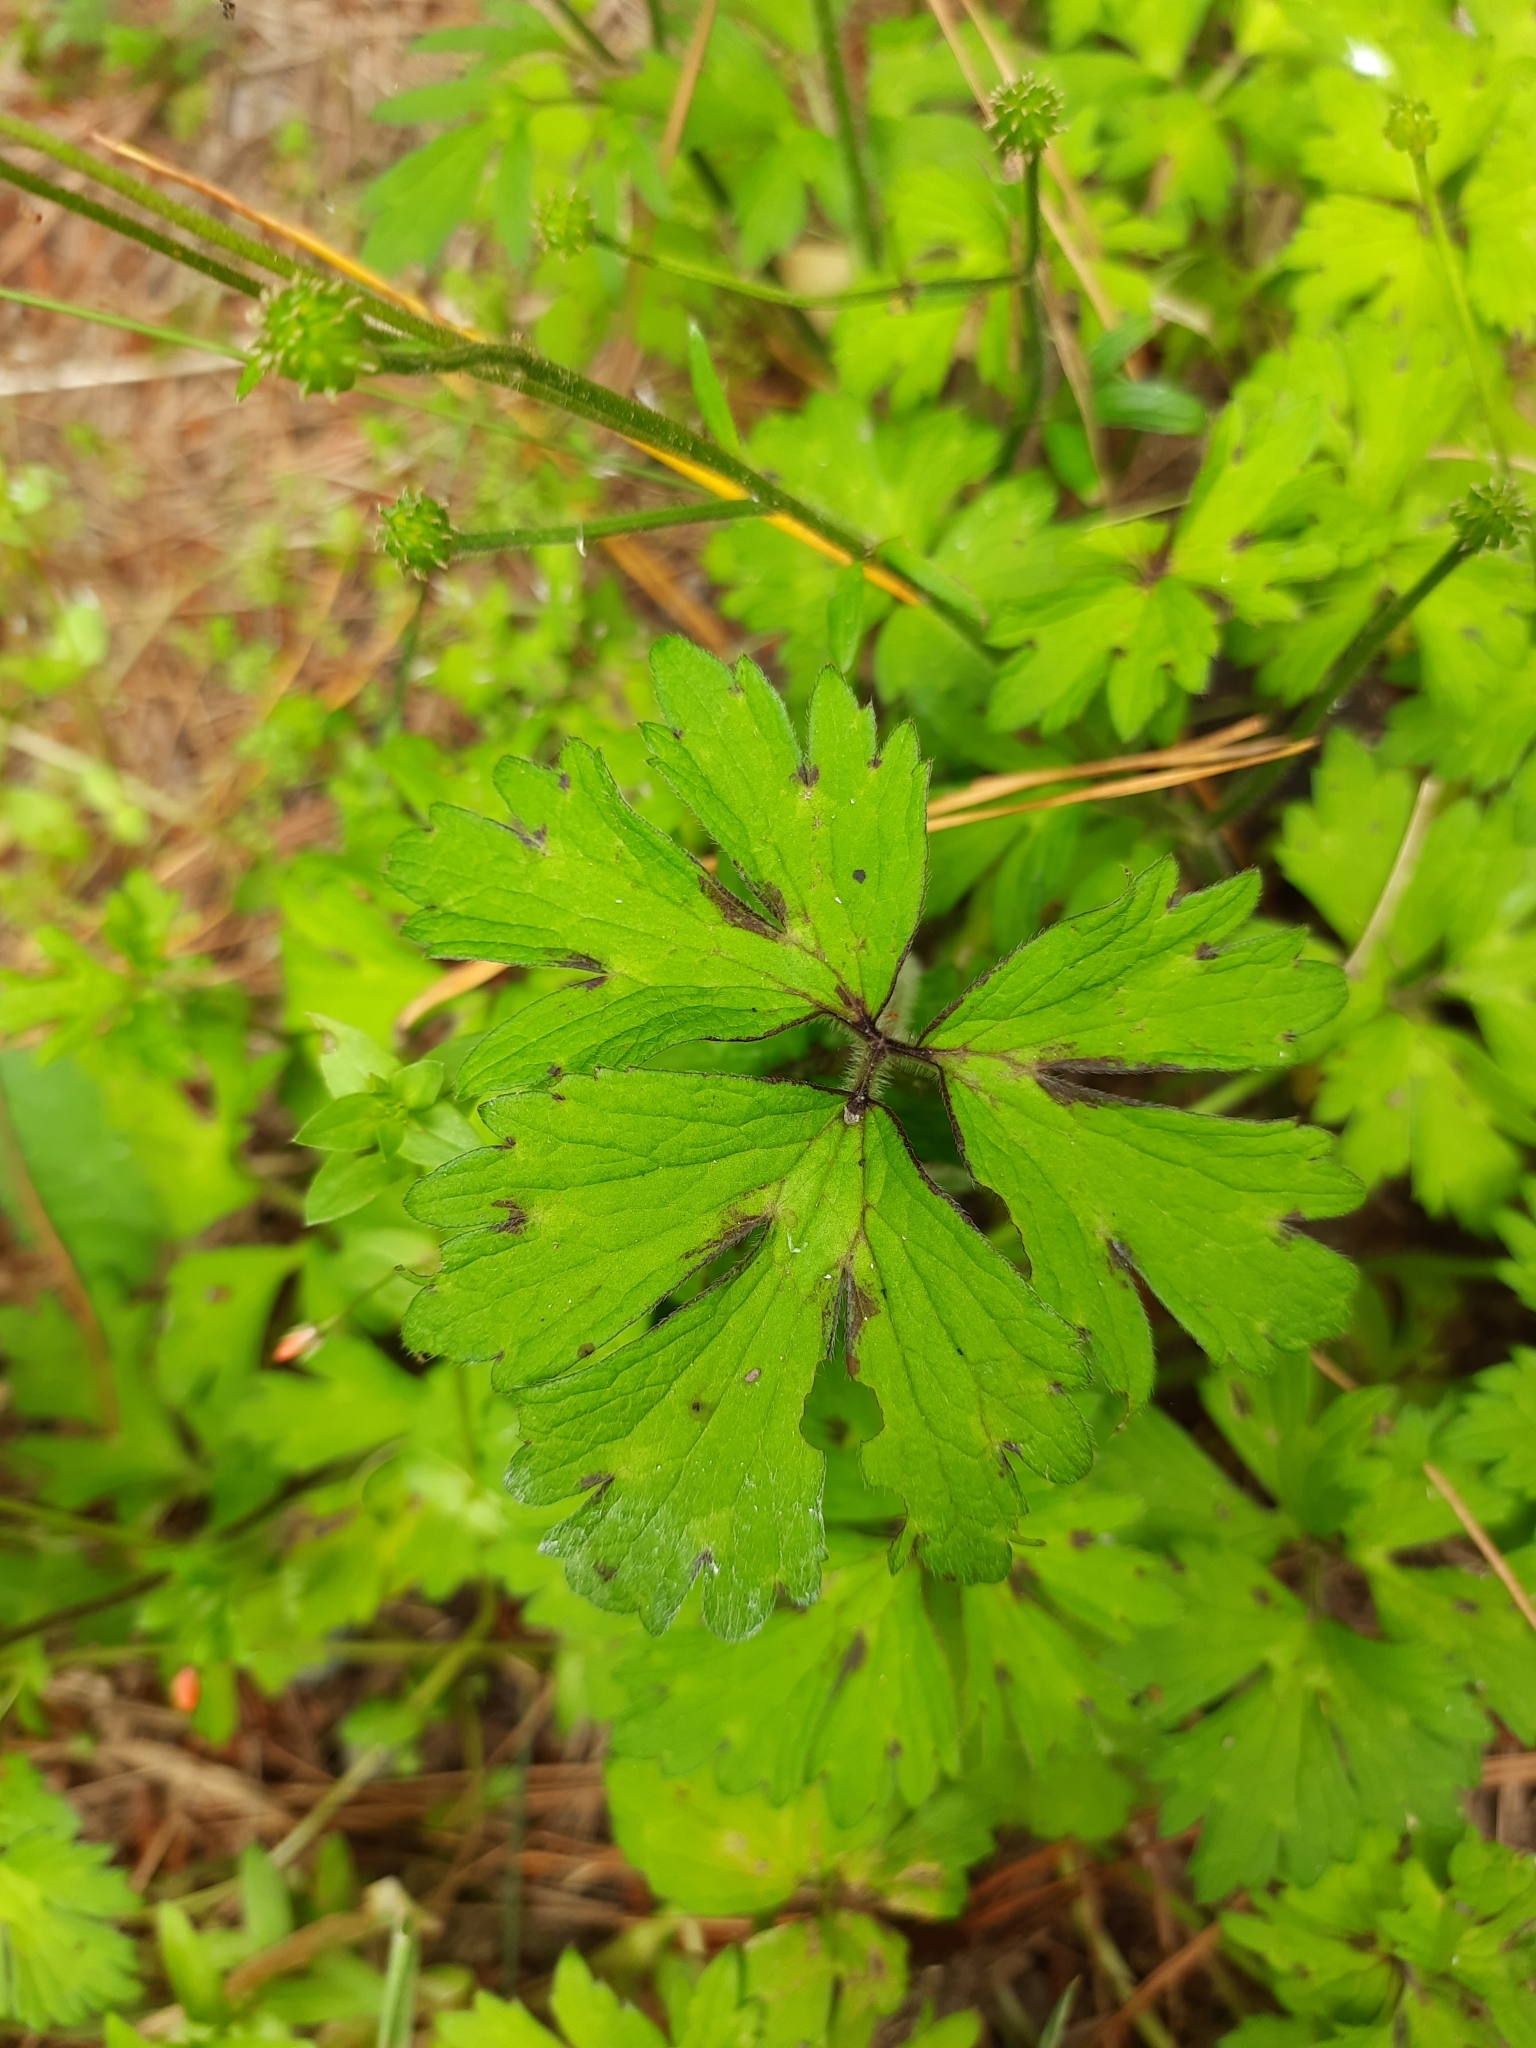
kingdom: Plantae
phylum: Tracheophyta
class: Magnoliopsida
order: Ranunculales
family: Ranunculaceae
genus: Ranunculus
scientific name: Ranunculus repens
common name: Creeping buttercup
